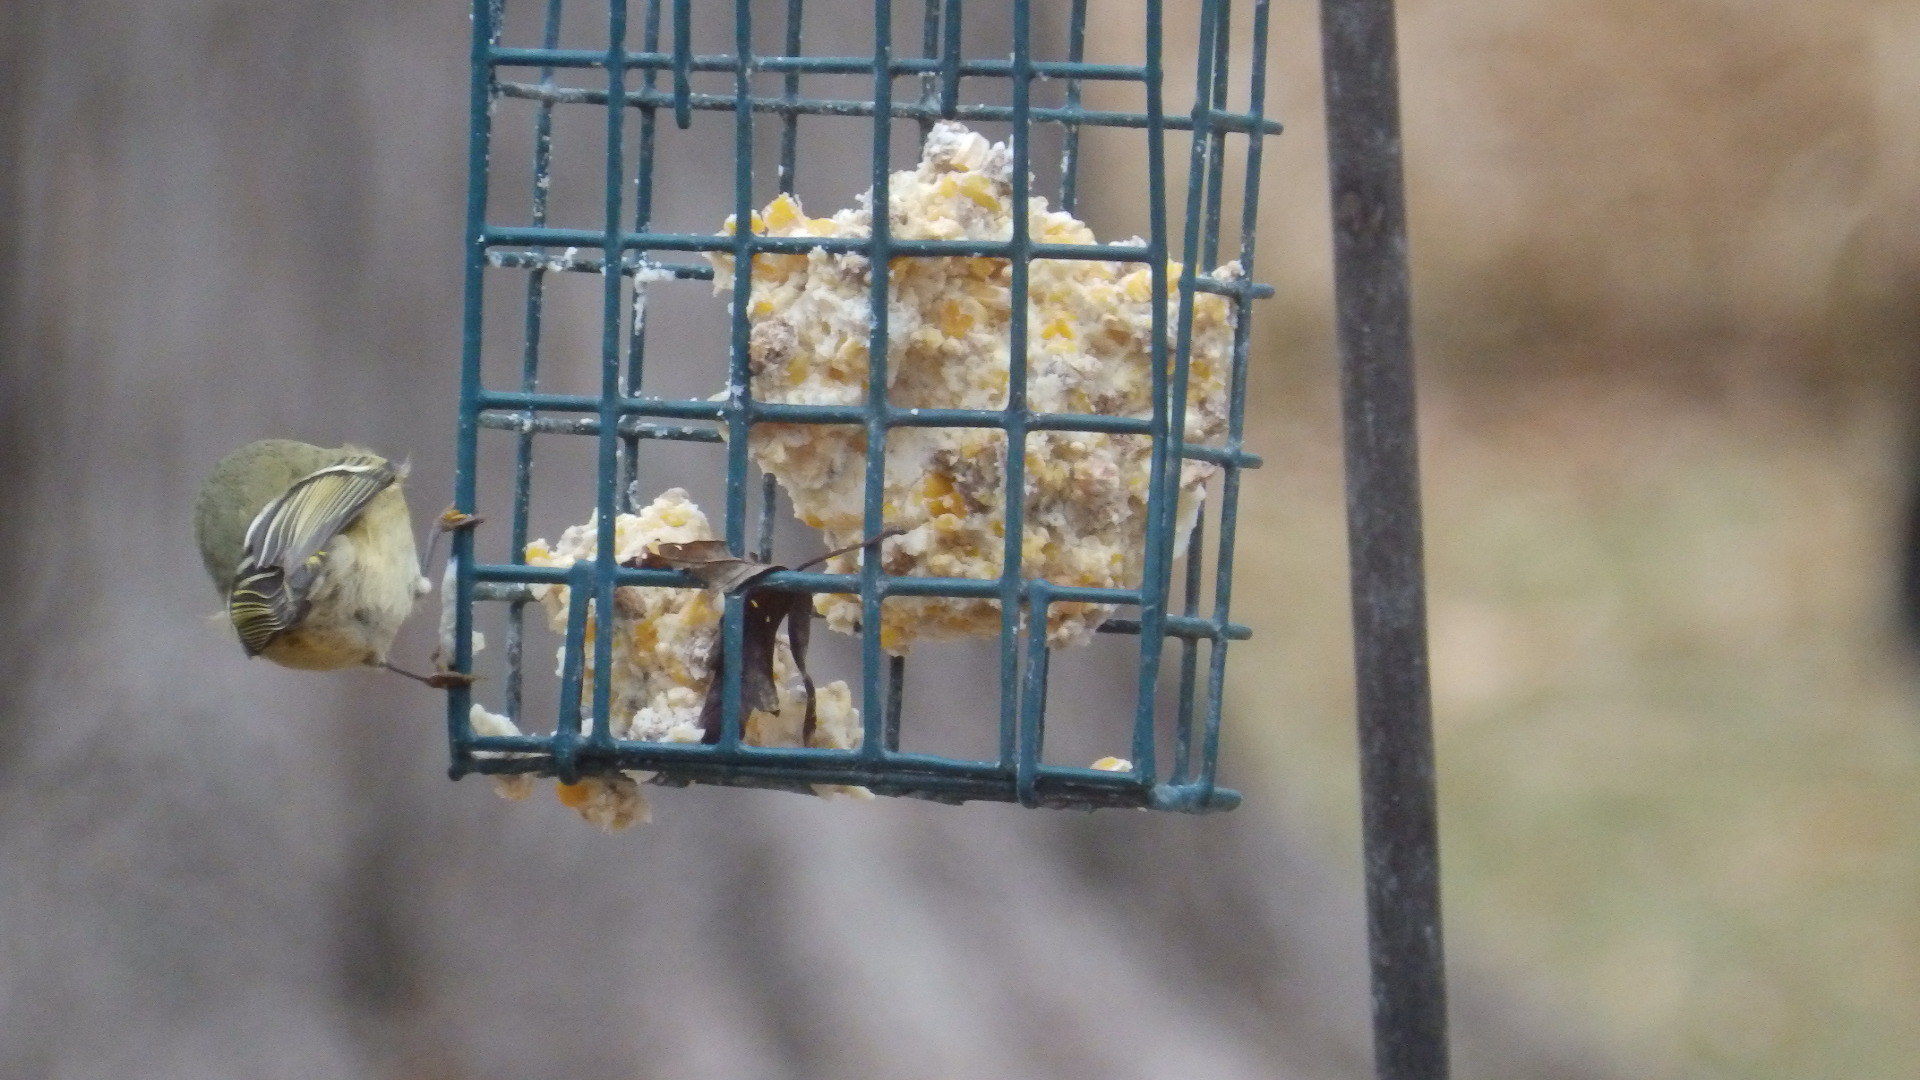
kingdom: Animalia
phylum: Chordata
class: Aves
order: Passeriformes
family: Regulidae
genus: Regulus
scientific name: Regulus calendula
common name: Ruby-crowned kinglet
